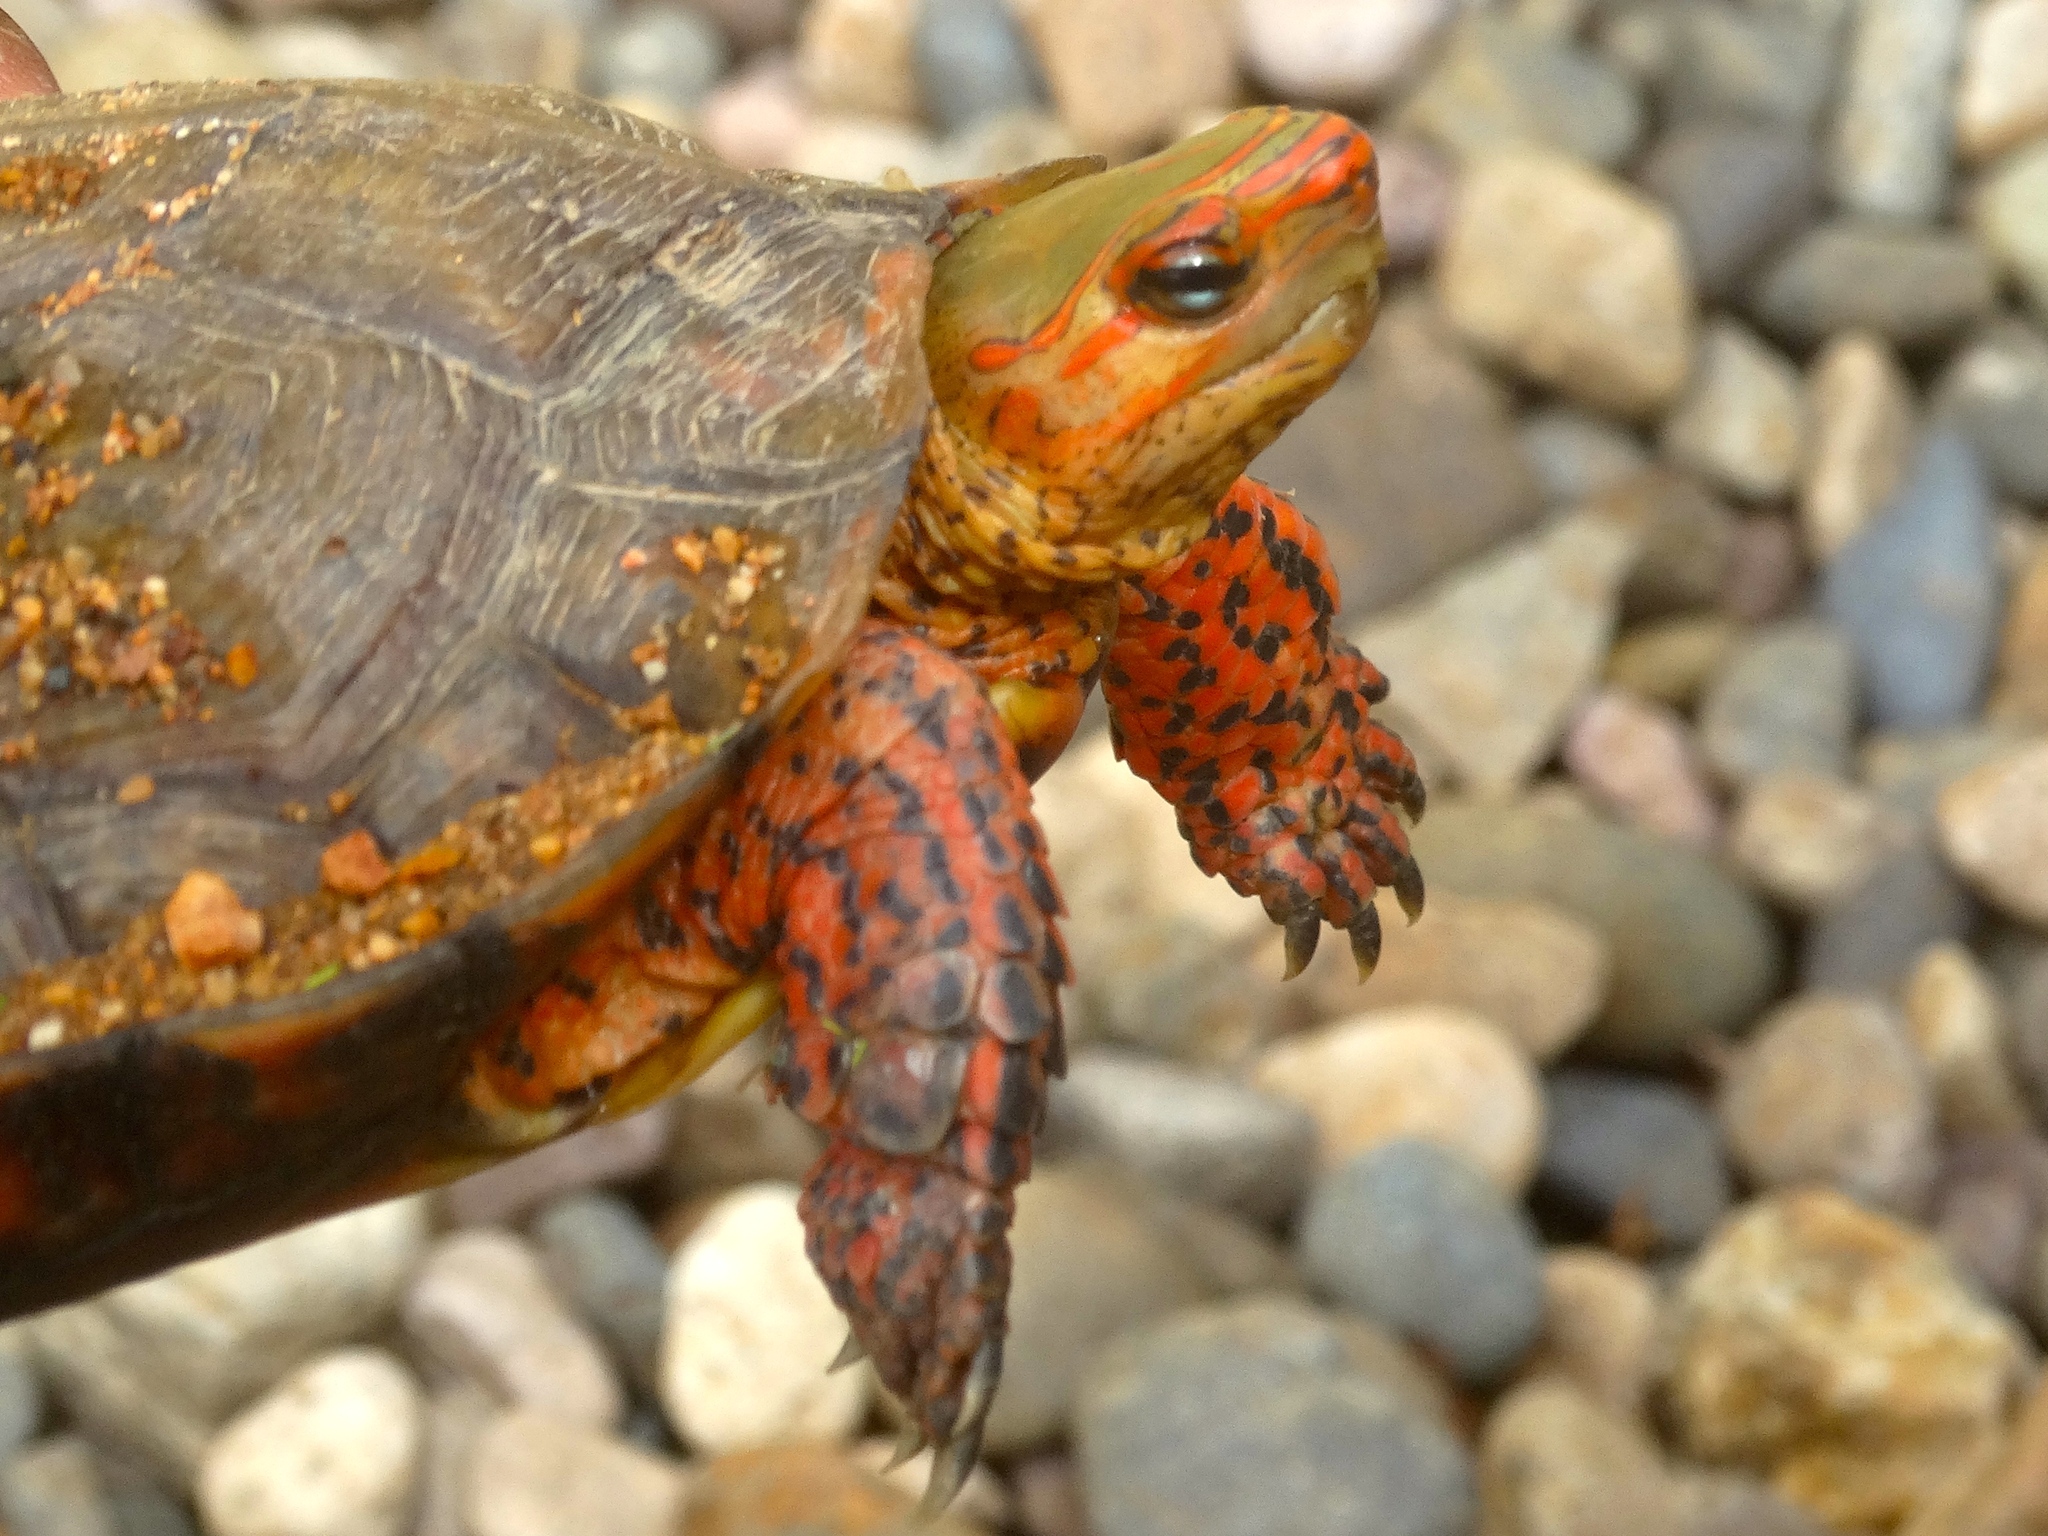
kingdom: Animalia
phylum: Chordata
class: Testudines
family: Geoemydidae
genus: Rhinoclemmys
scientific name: Rhinoclemmys pulcherrima
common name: Painted wood turtle
